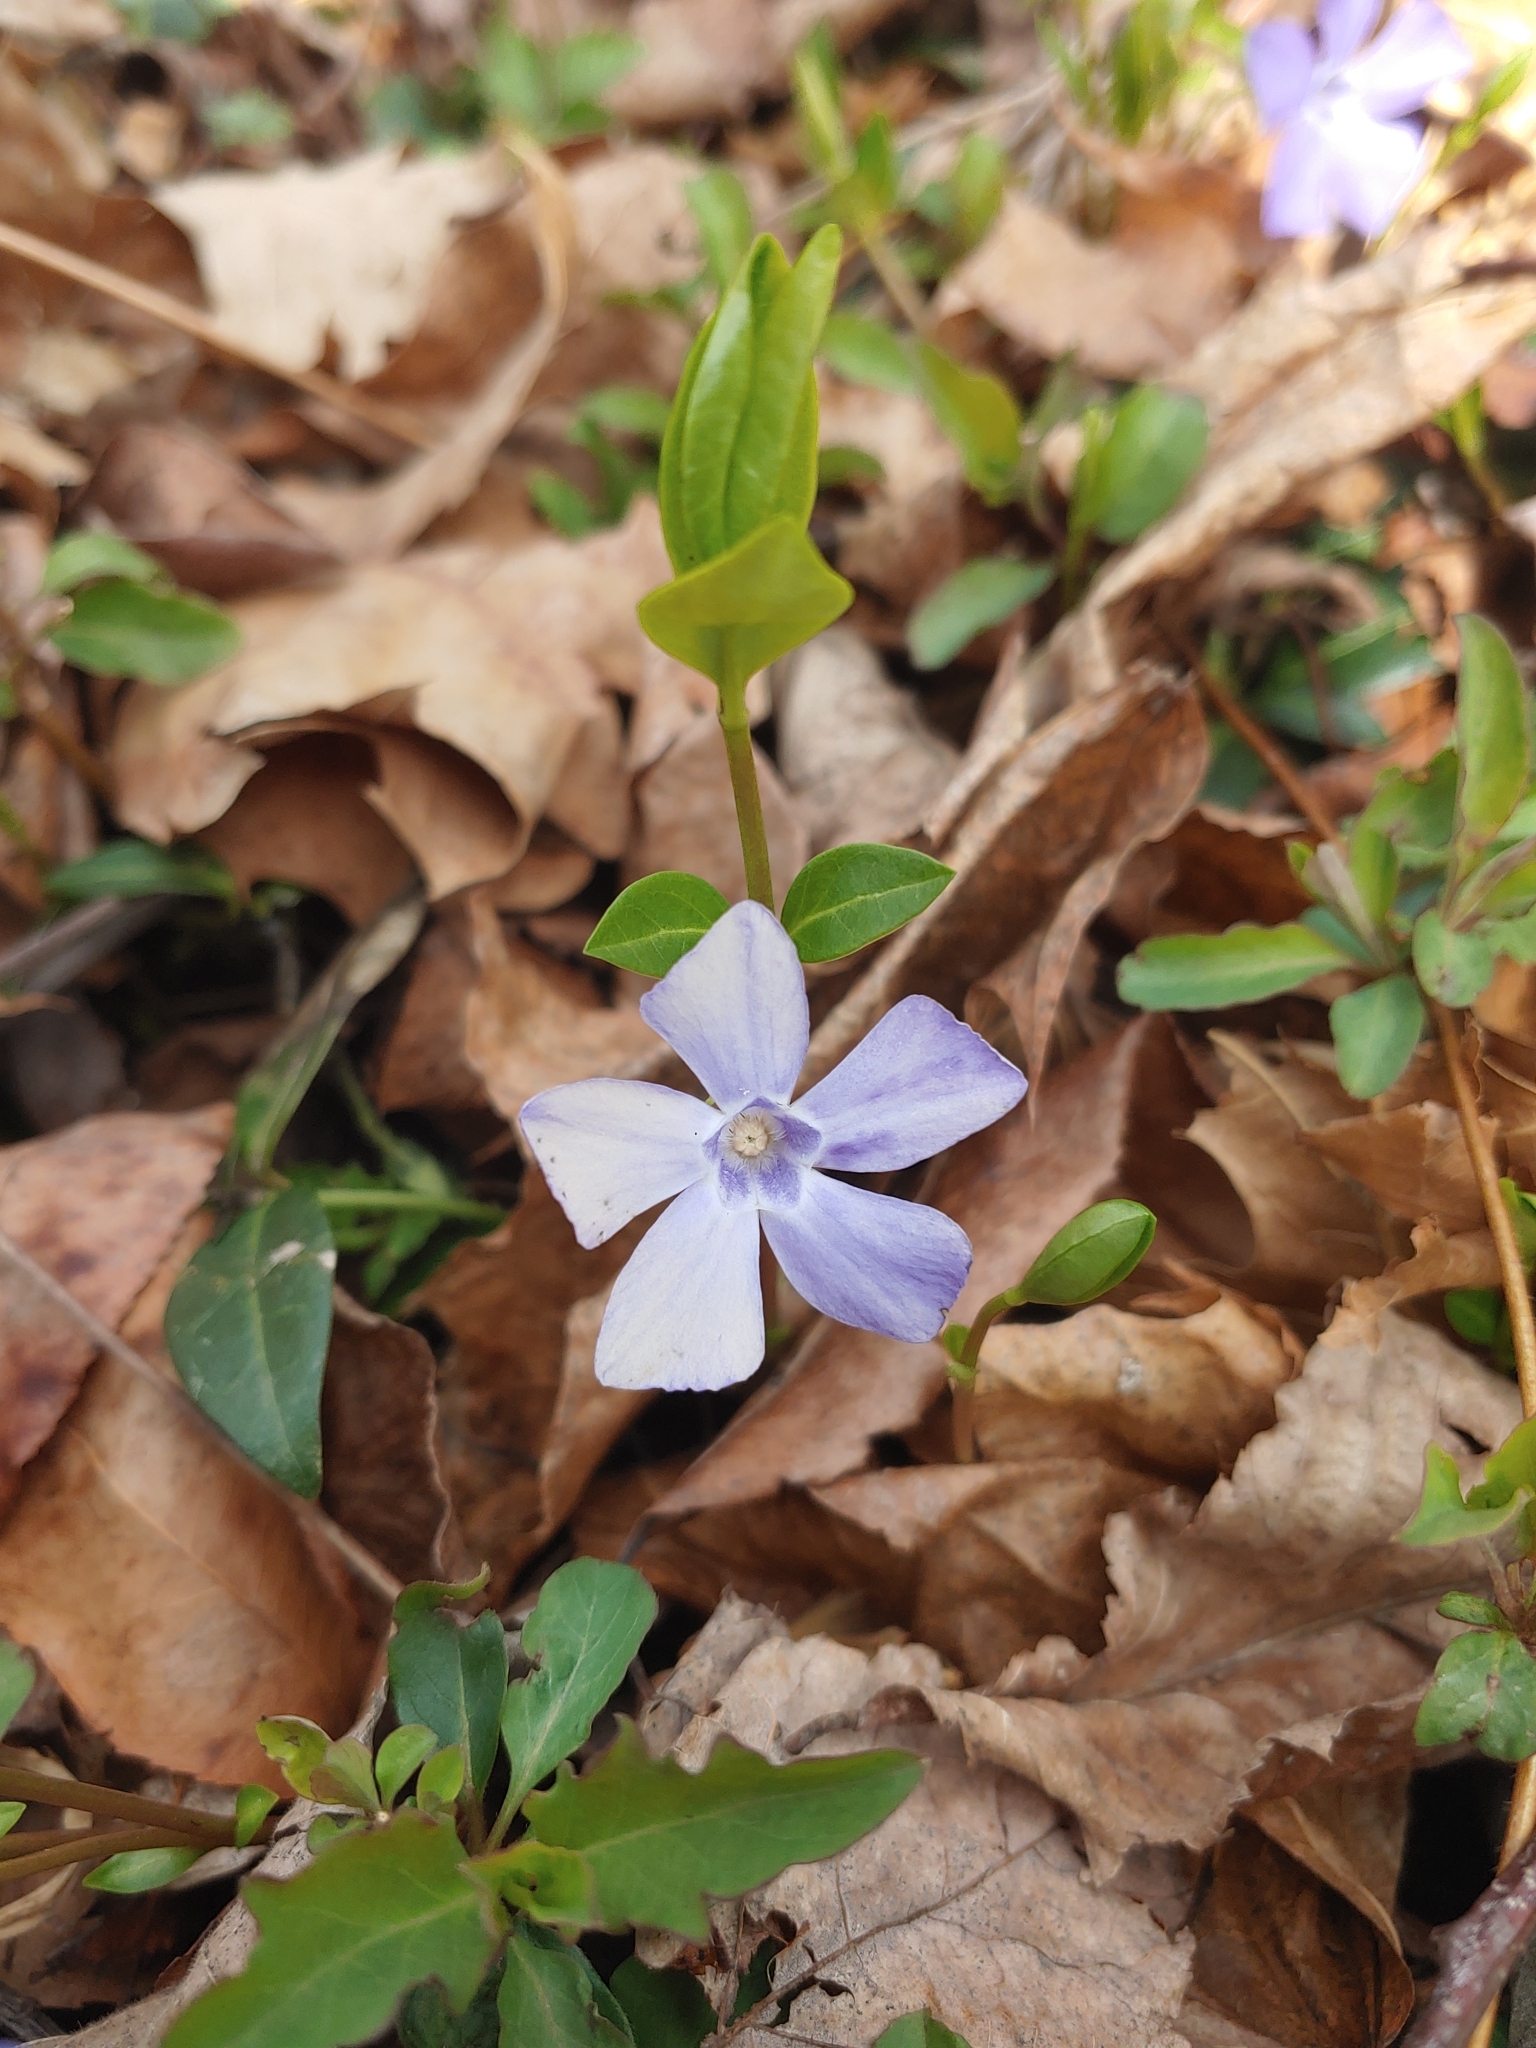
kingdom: Plantae
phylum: Tracheophyta
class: Magnoliopsida
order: Gentianales
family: Apocynaceae
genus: Vinca
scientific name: Vinca minor
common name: Lesser periwinkle
